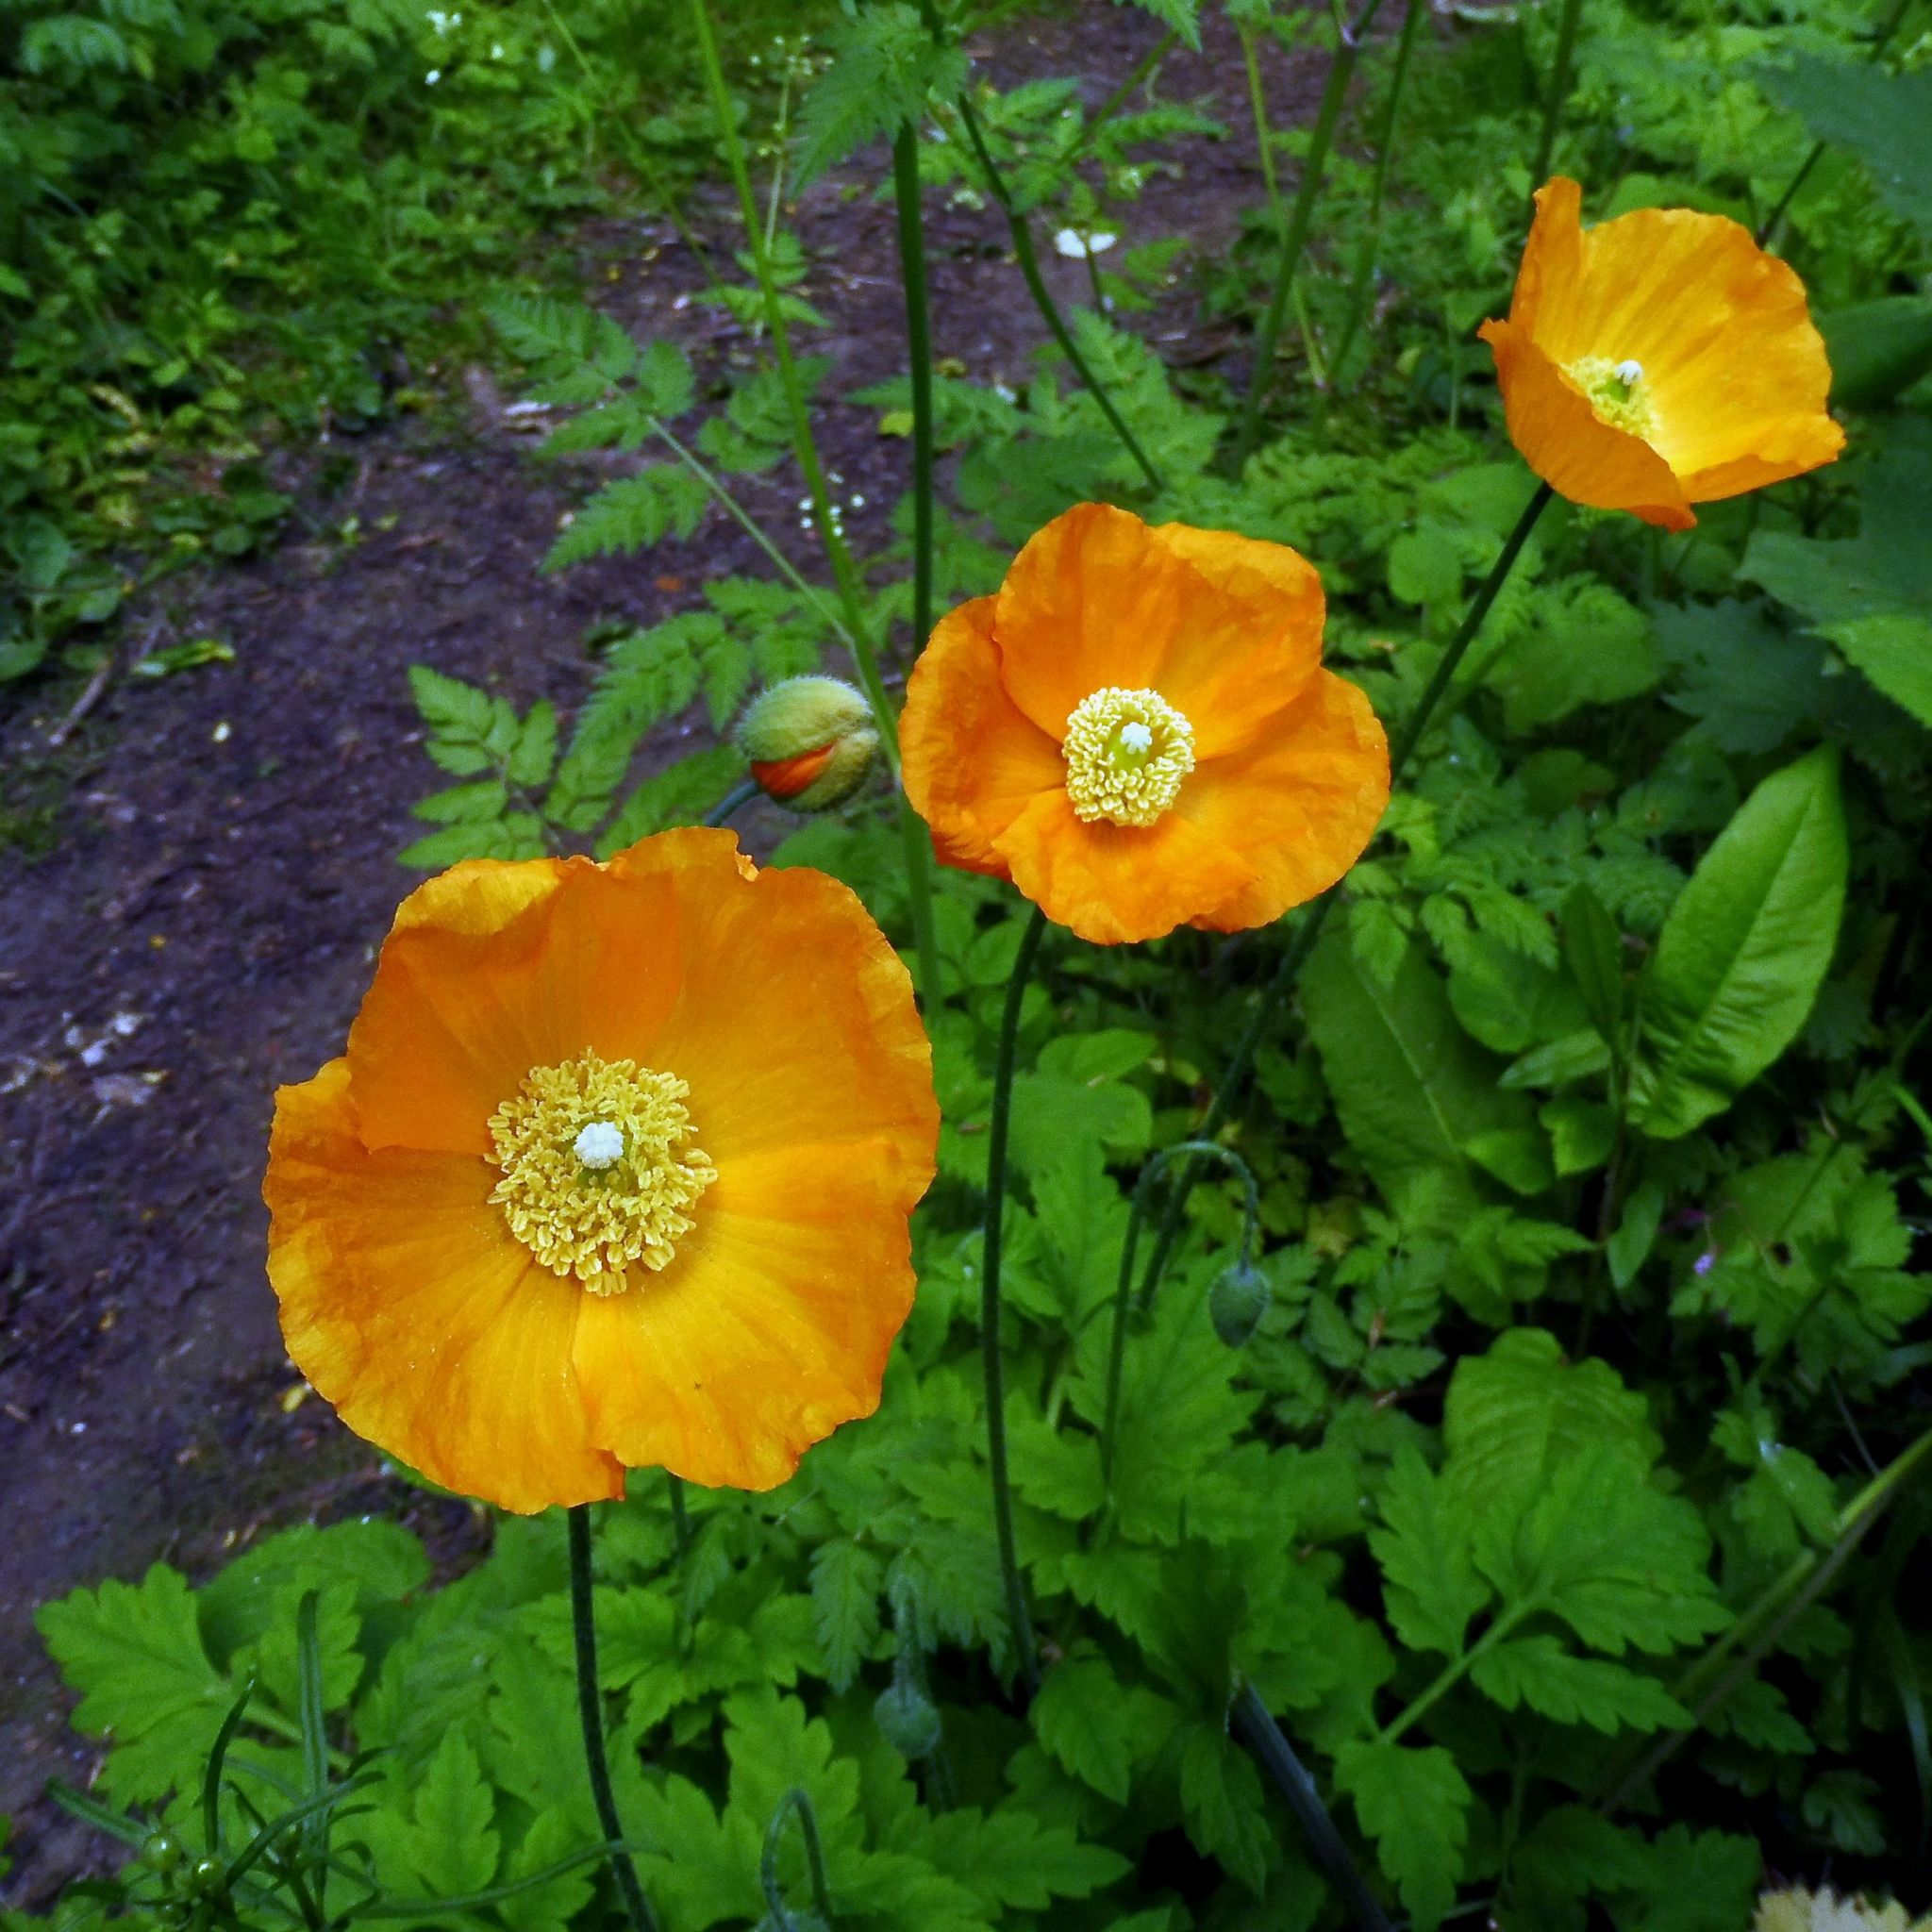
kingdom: Plantae
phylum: Tracheophyta
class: Magnoliopsida
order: Ranunculales
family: Papaveraceae
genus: Papaver
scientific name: Papaver cambricum
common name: Poppy
